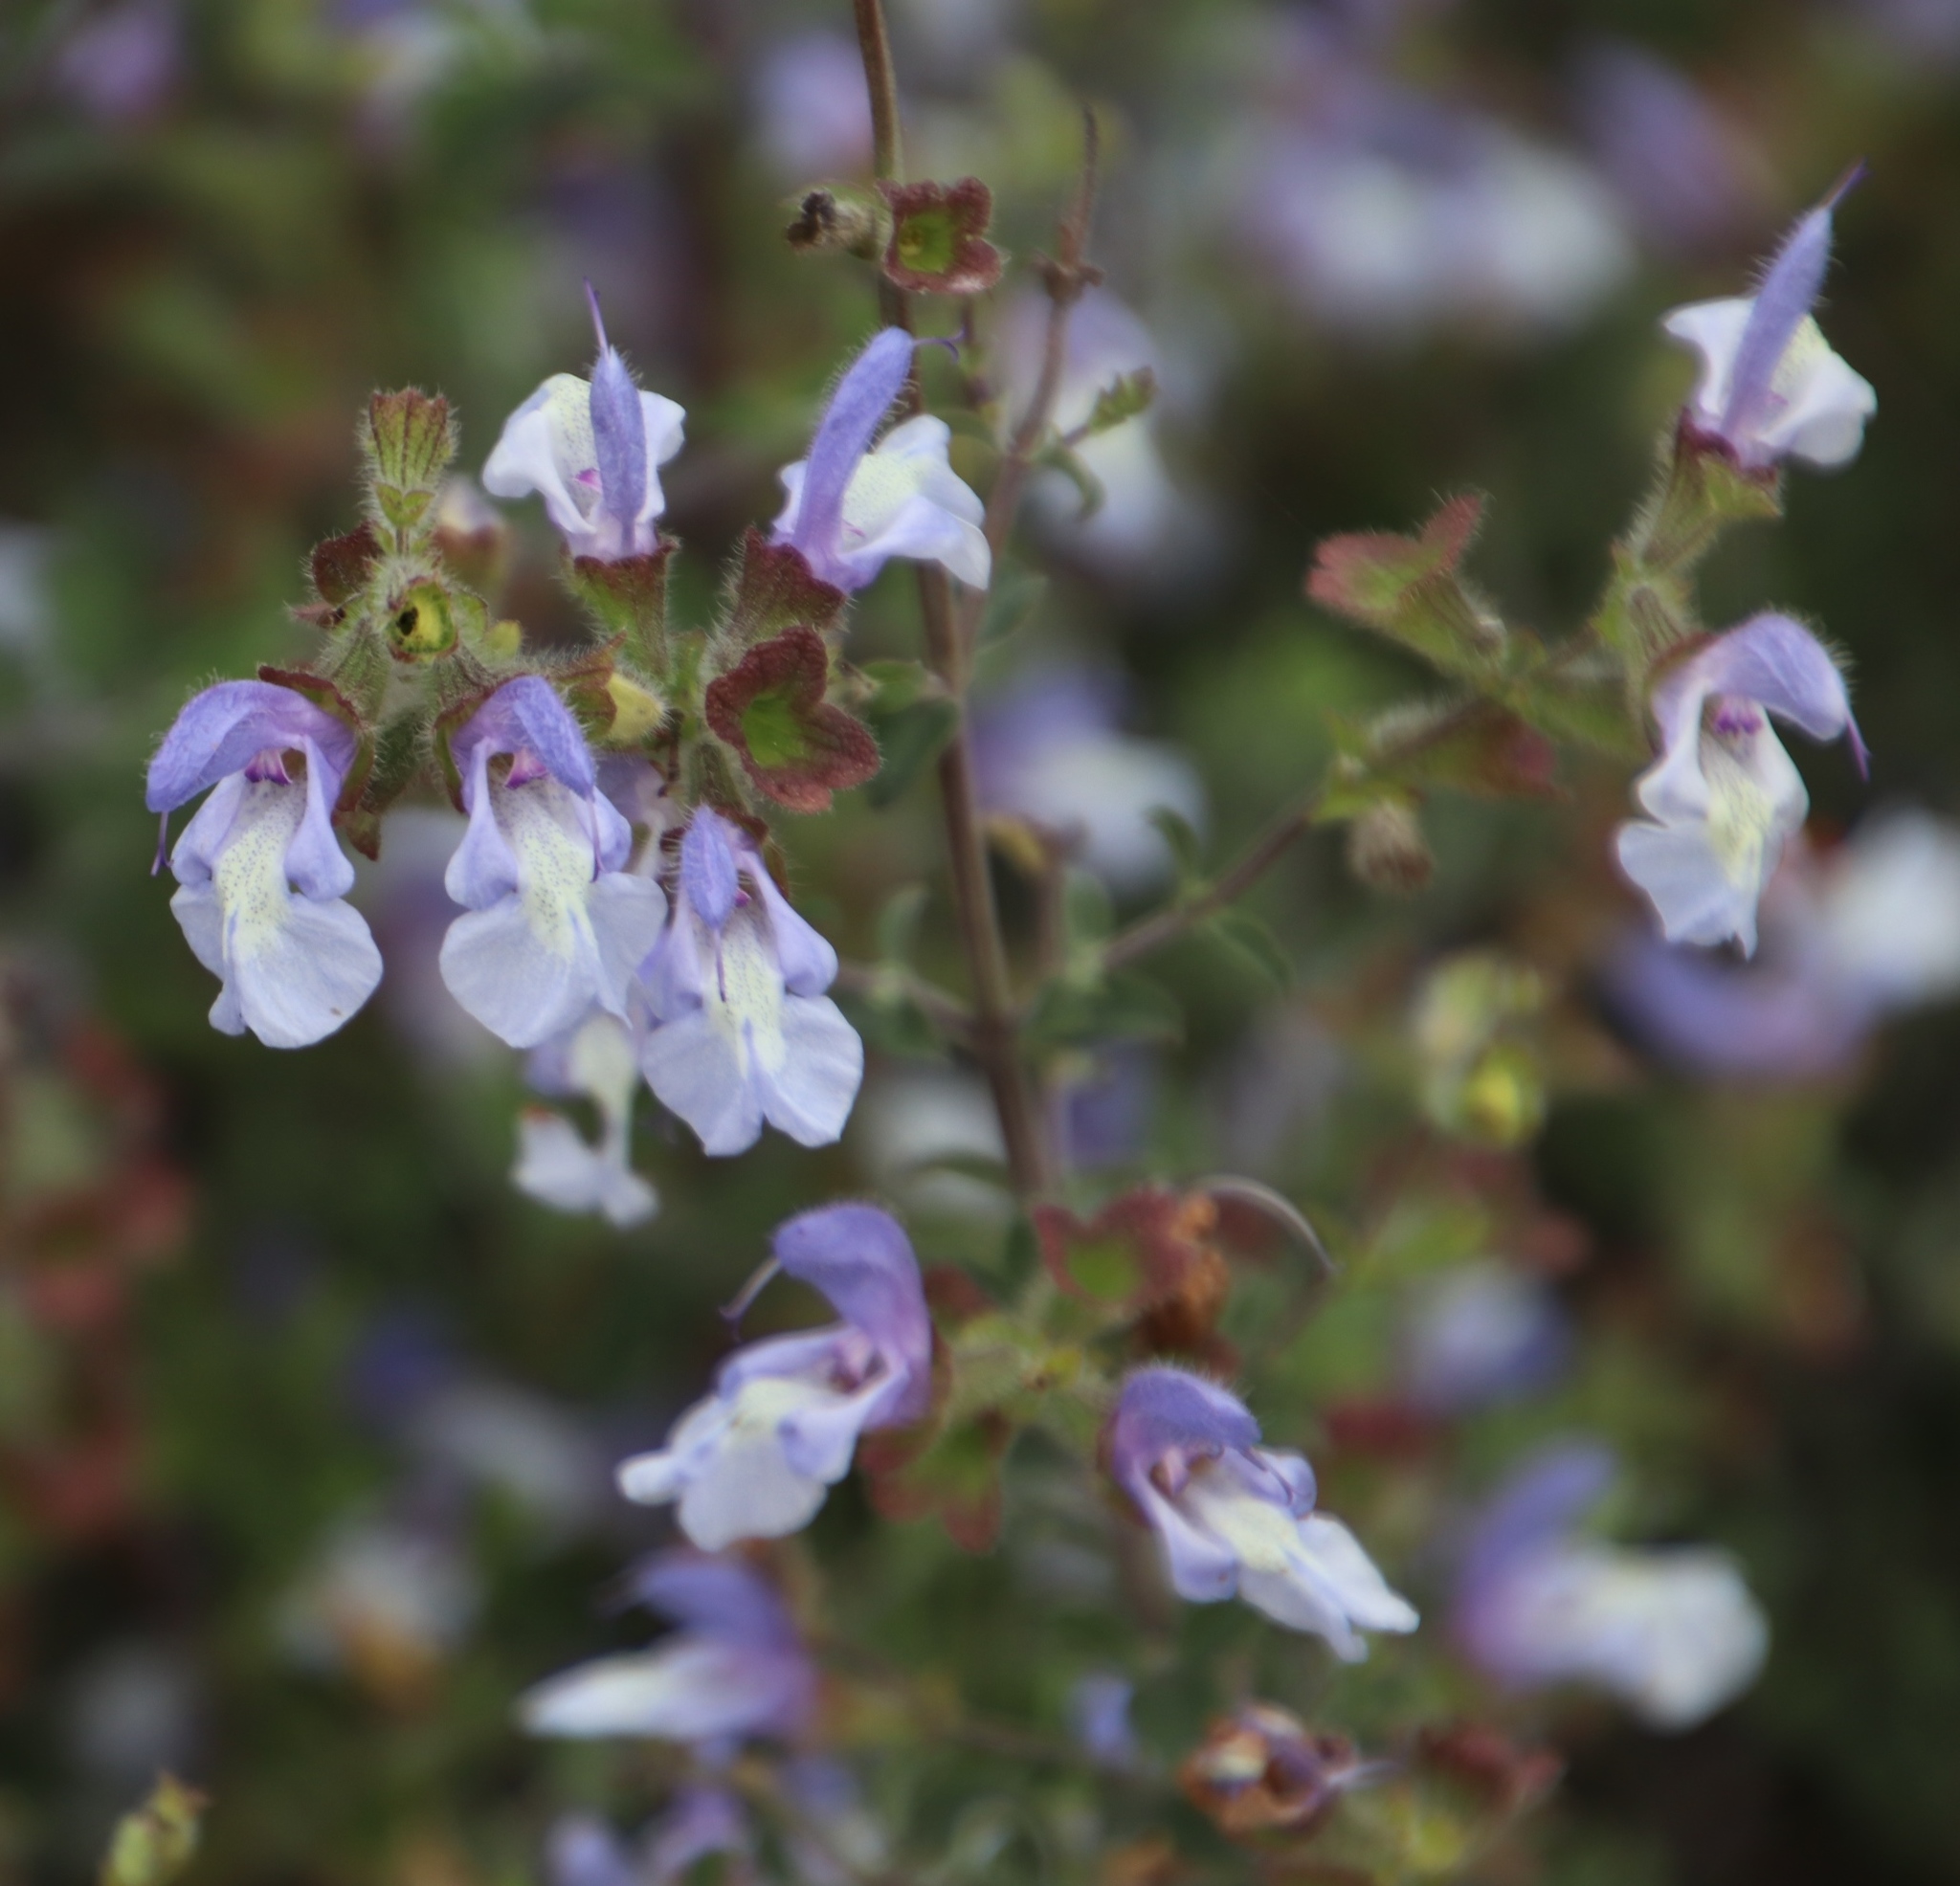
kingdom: Plantae
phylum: Tracheophyta
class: Magnoliopsida
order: Lamiales
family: Lamiaceae
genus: Salvia
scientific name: Salvia africana
